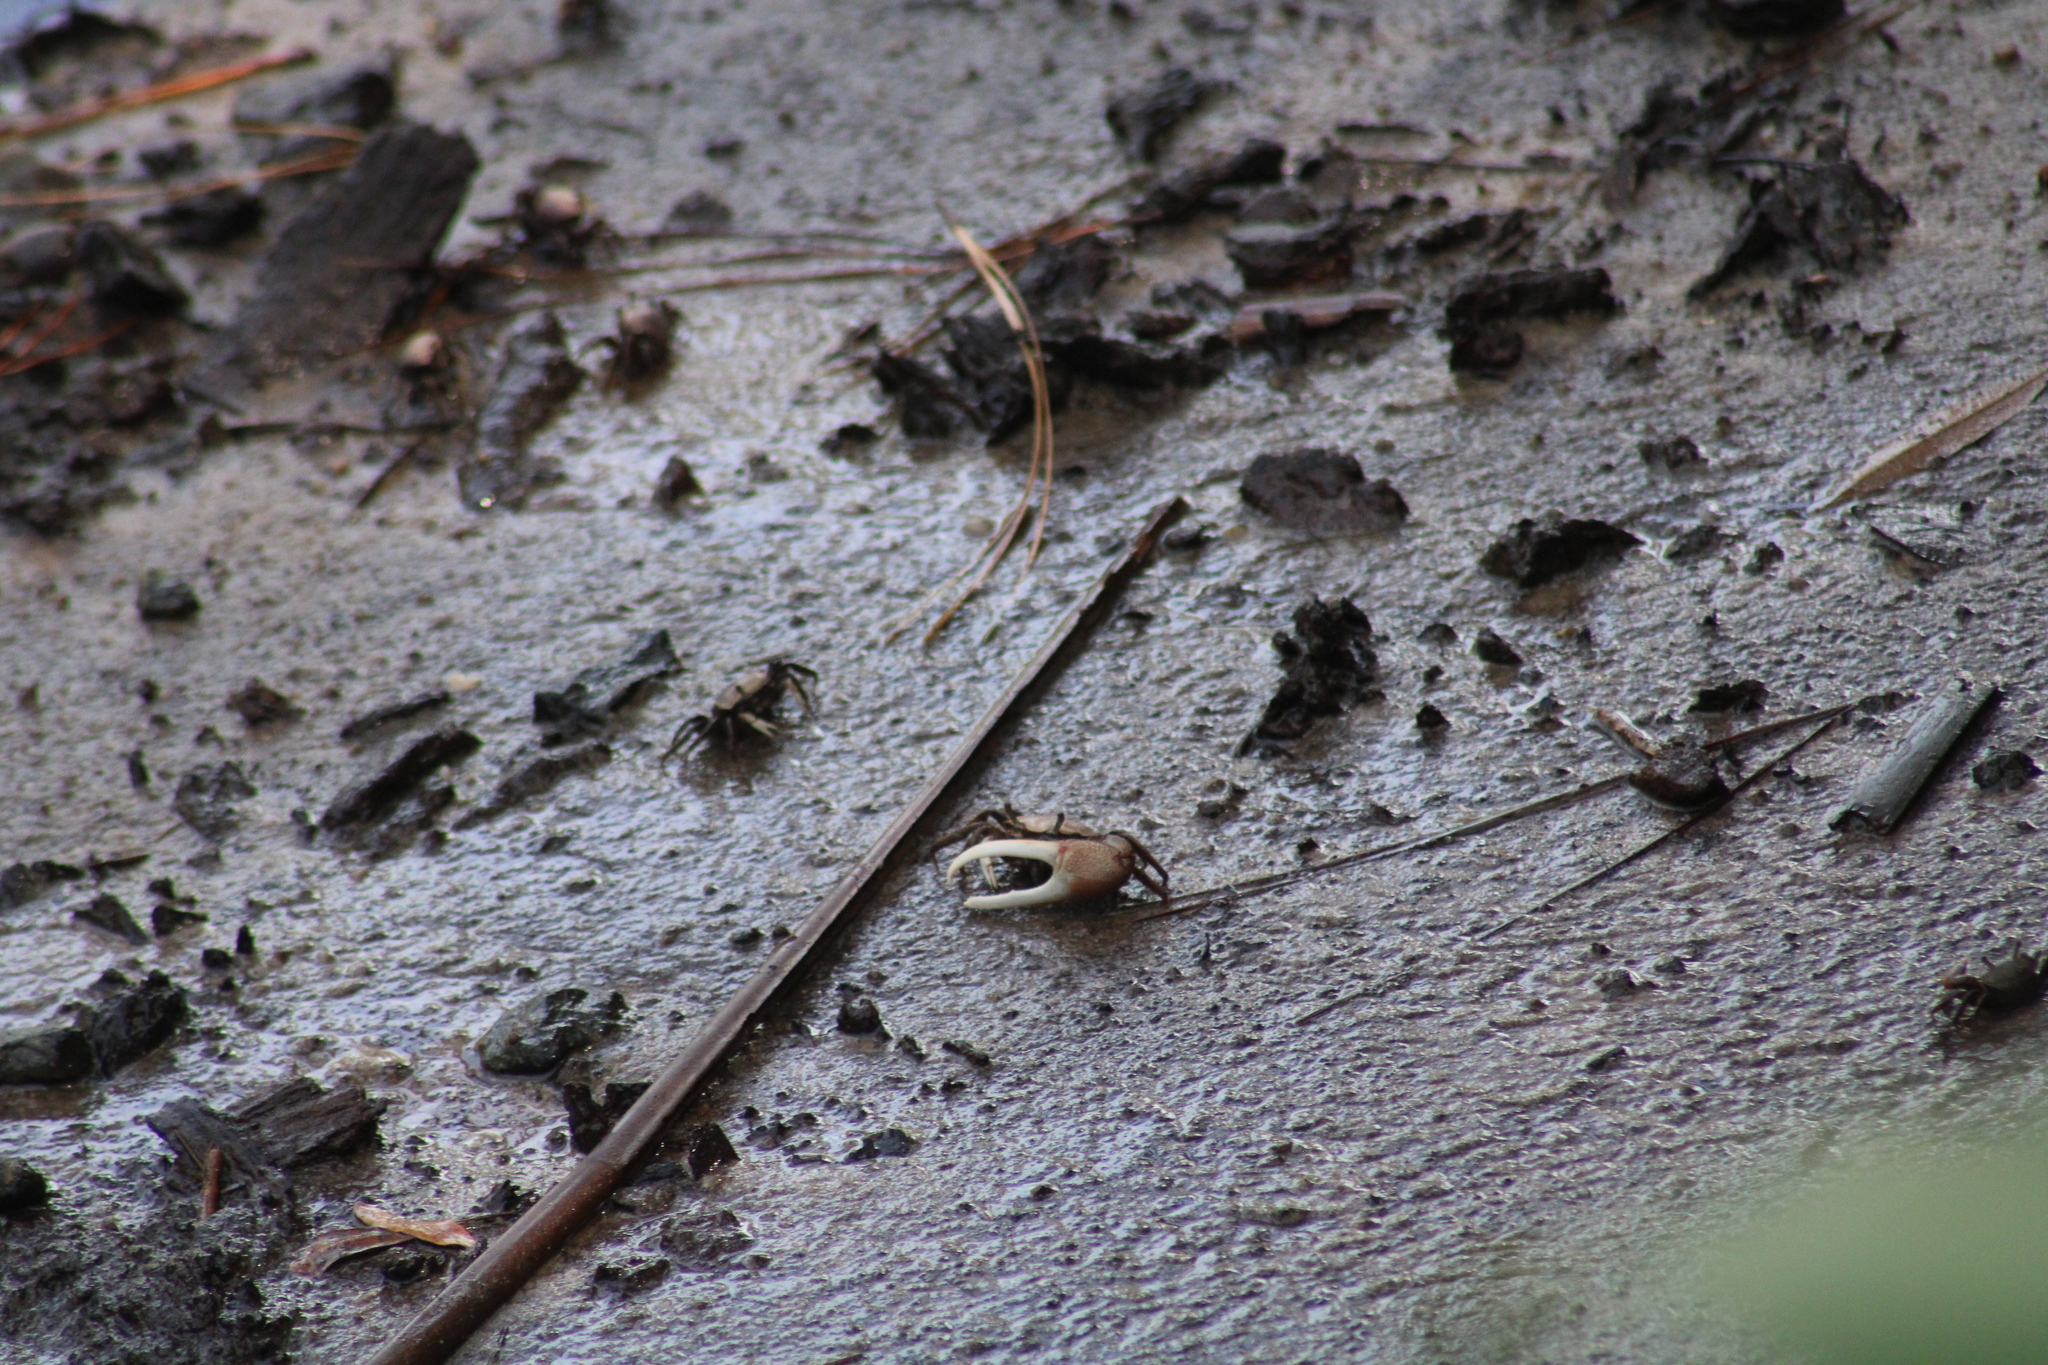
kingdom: Animalia
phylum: Arthropoda
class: Malacostraca
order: Decapoda
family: Ocypodidae
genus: Minuca
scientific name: Minuca minax
